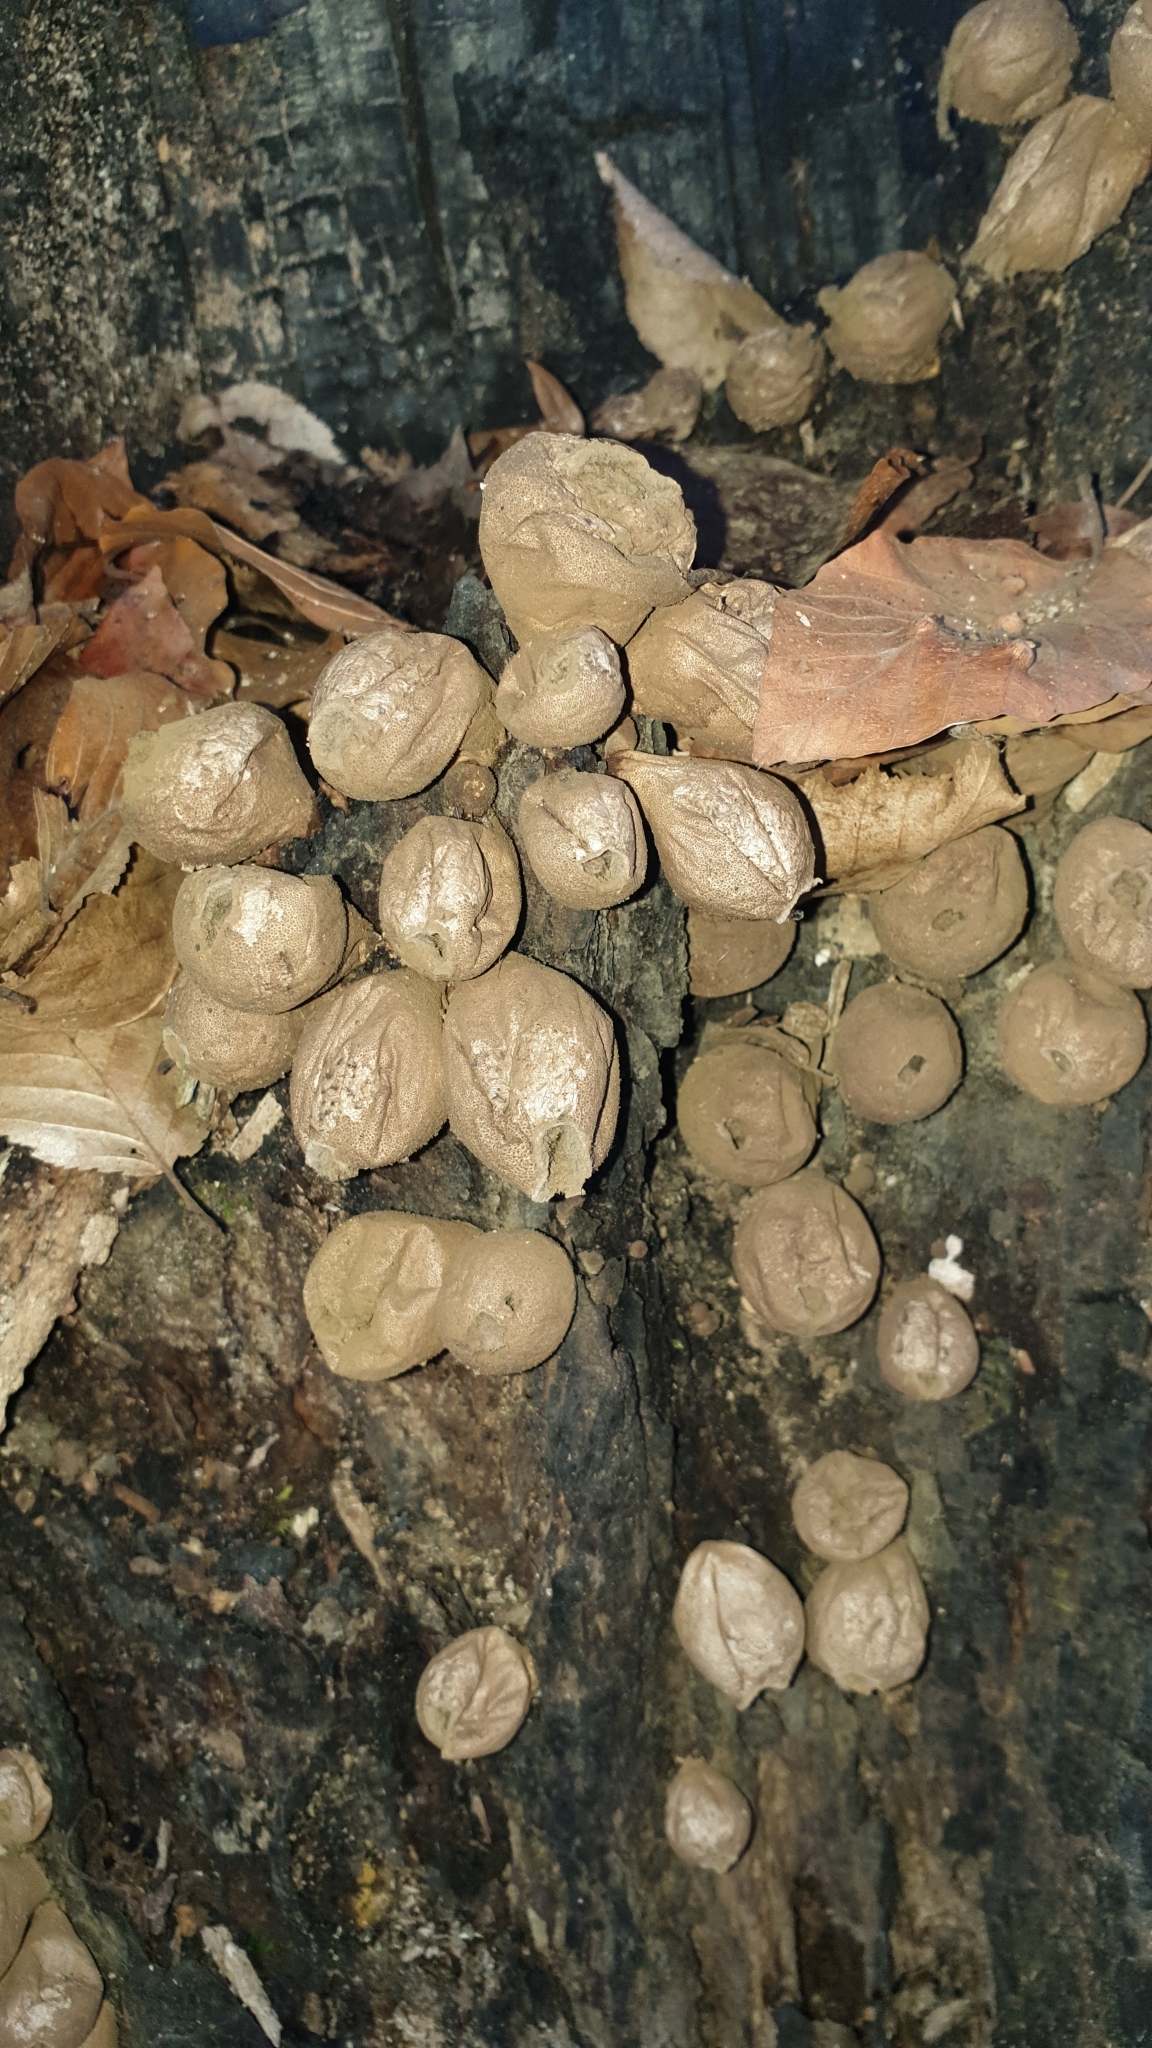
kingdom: Fungi
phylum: Basidiomycota
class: Agaricomycetes
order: Agaricales
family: Lycoperdaceae
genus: Apioperdon
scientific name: Apioperdon pyriforme
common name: Pear-shaped puffball
